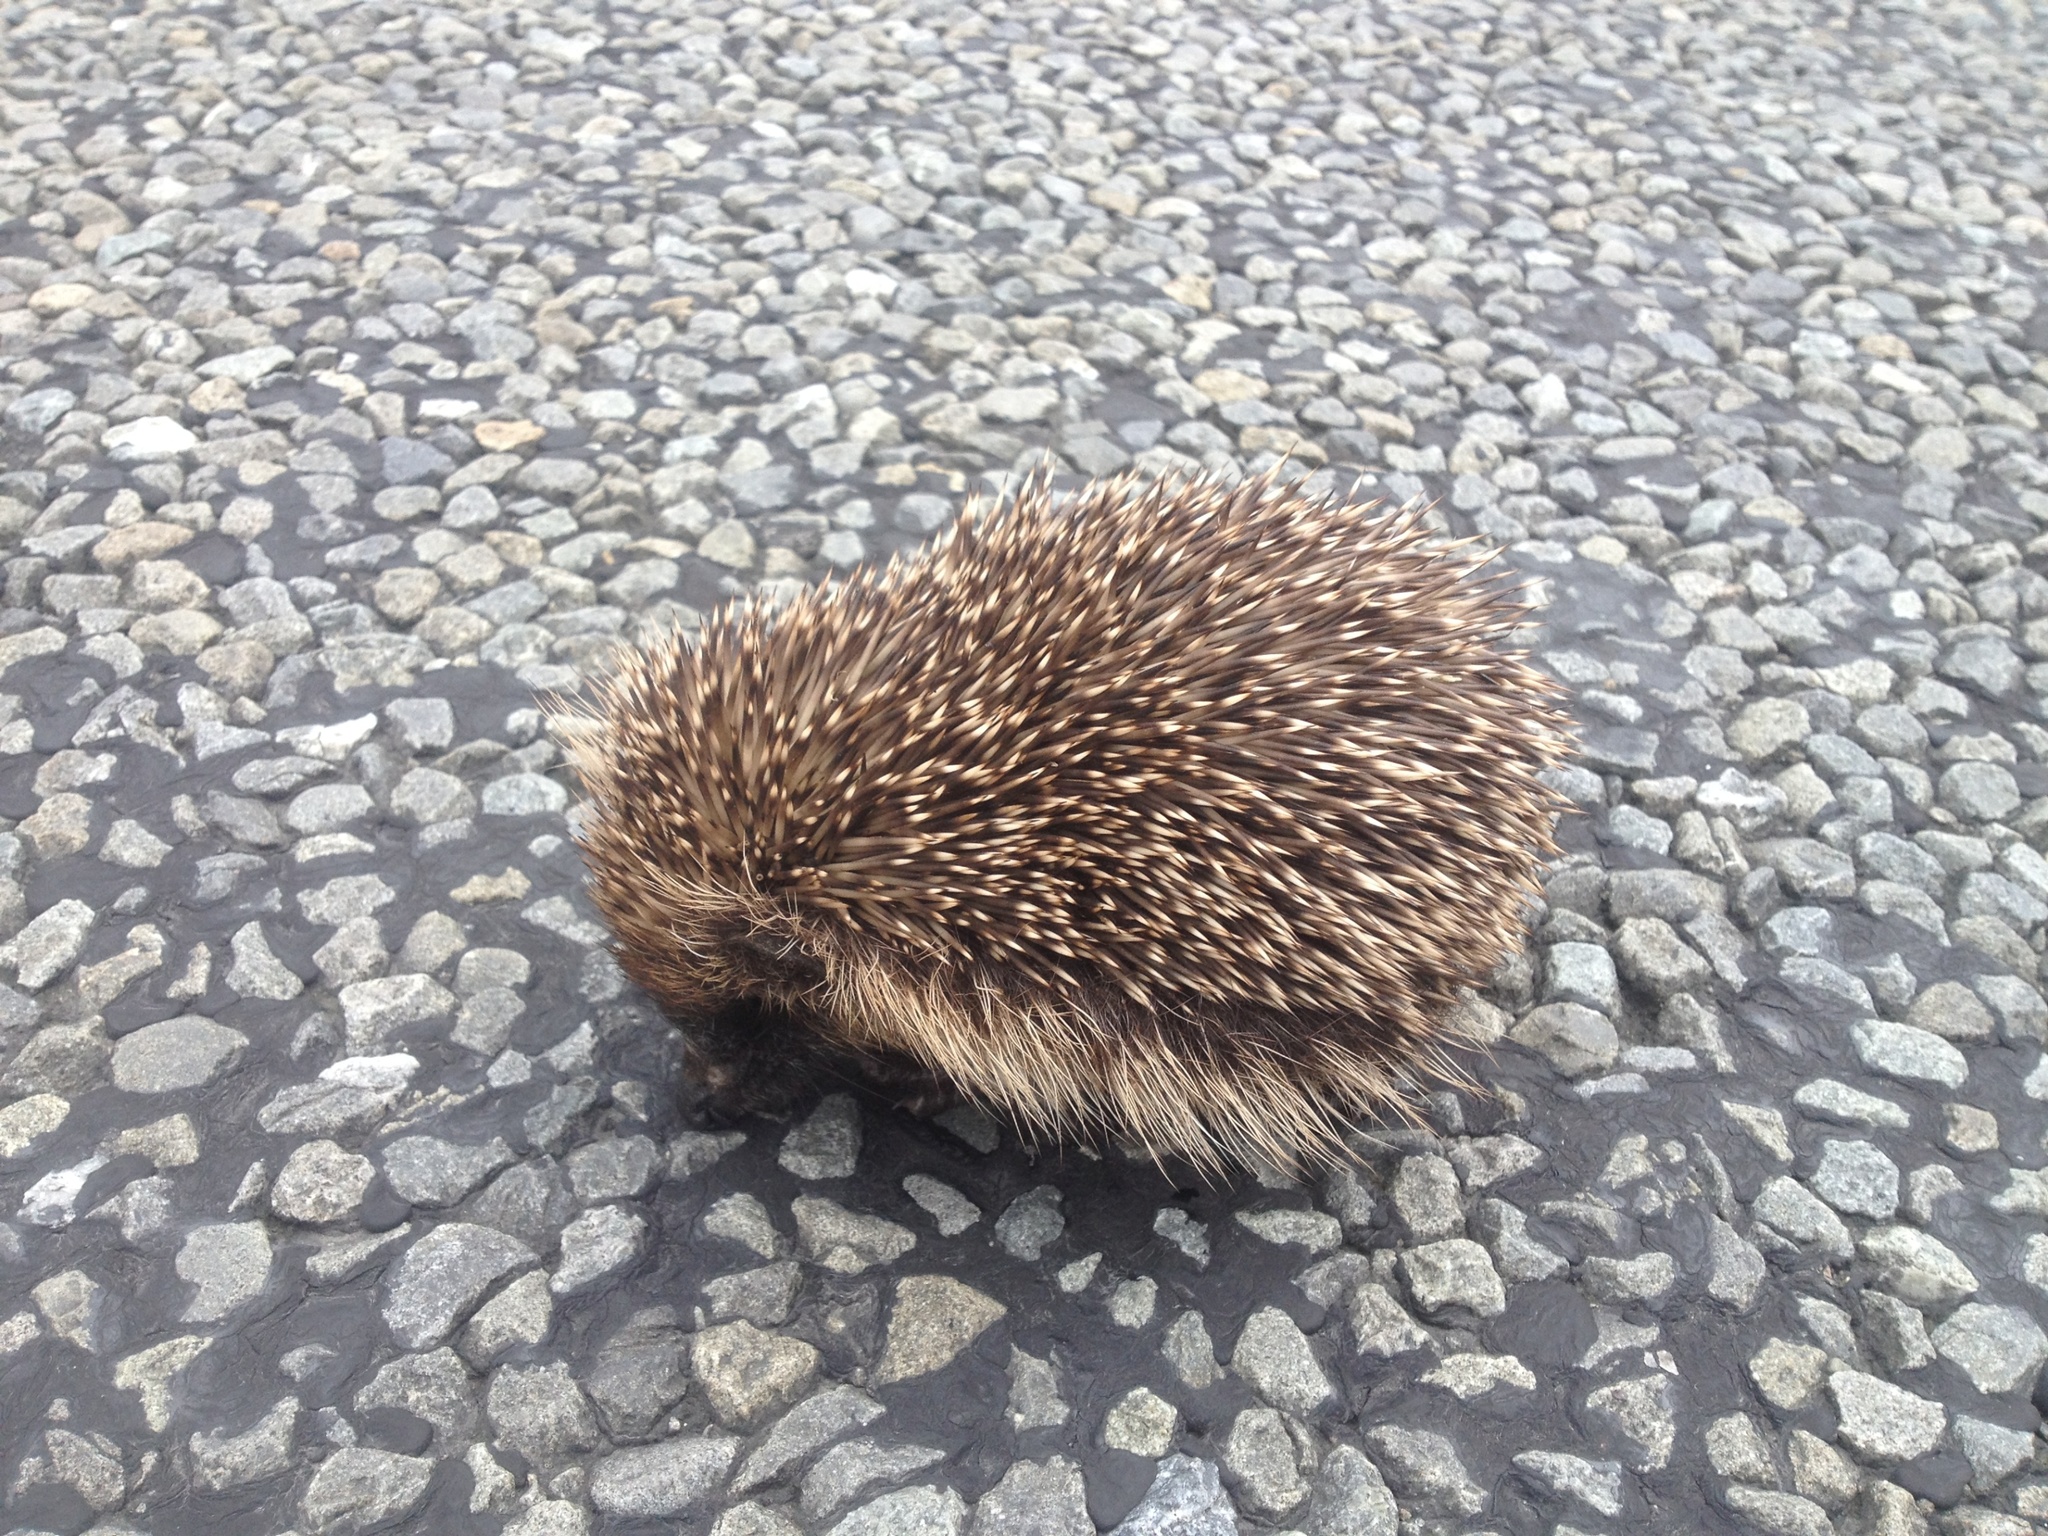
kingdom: Animalia
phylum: Chordata
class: Mammalia
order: Erinaceomorpha
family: Erinaceidae
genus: Erinaceus
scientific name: Erinaceus europaeus
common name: West european hedgehog
